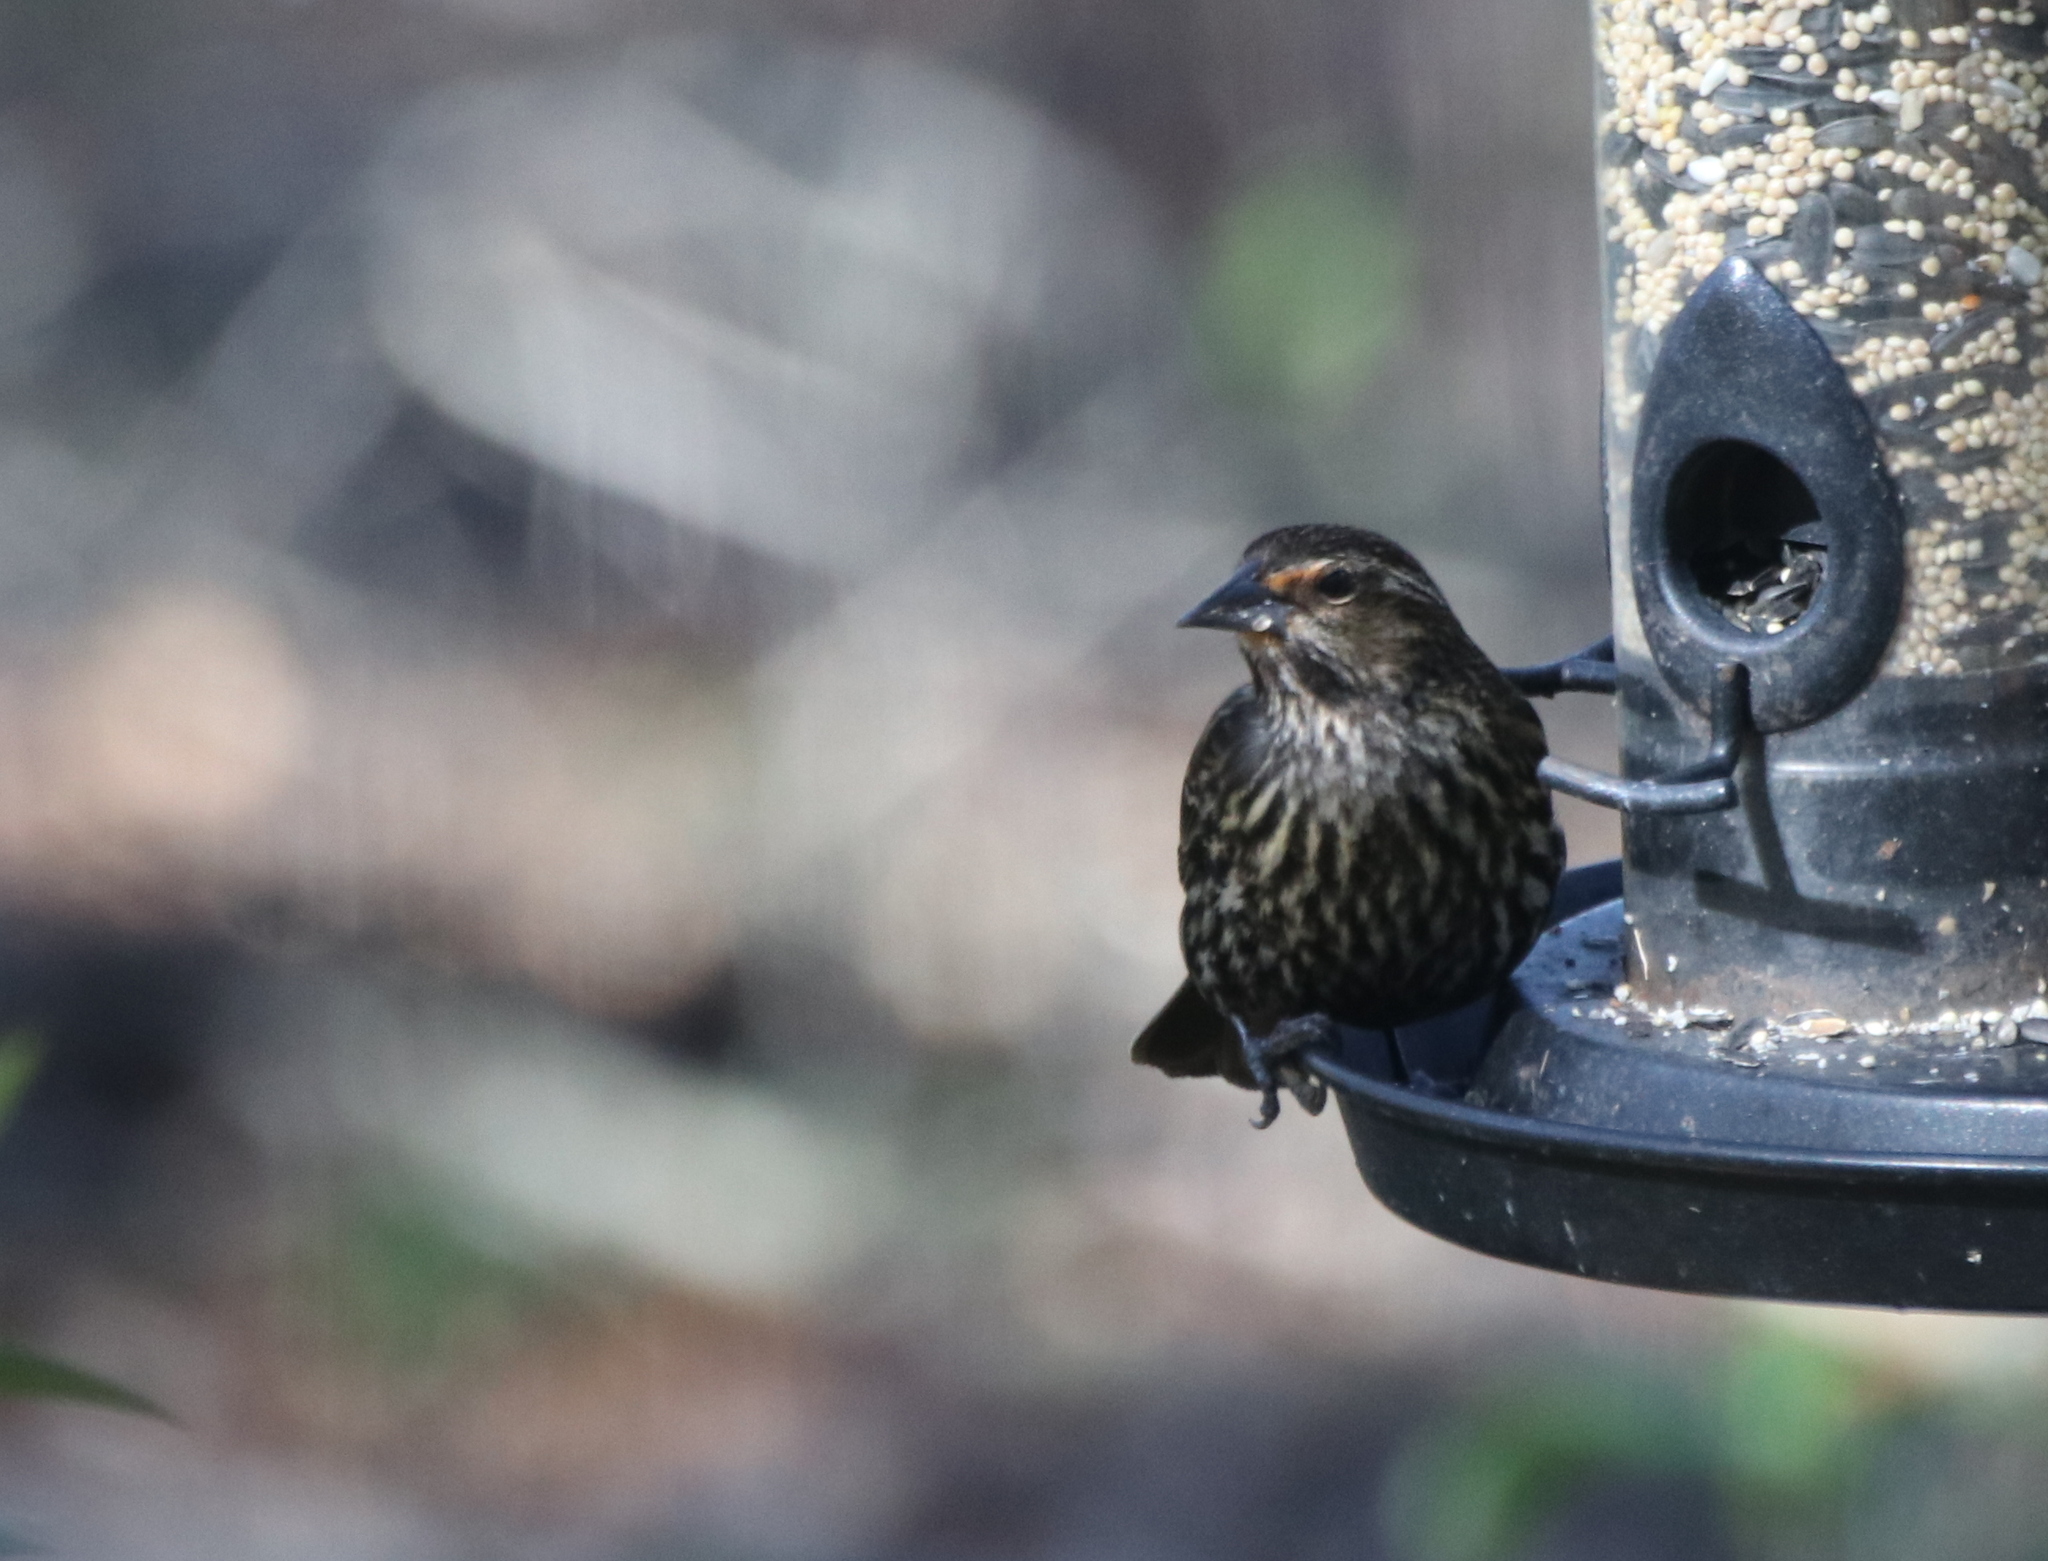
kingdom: Animalia
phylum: Chordata
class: Aves
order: Passeriformes
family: Icteridae
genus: Agelaius
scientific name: Agelaius phoeniceus
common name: Red-winged blackbird
